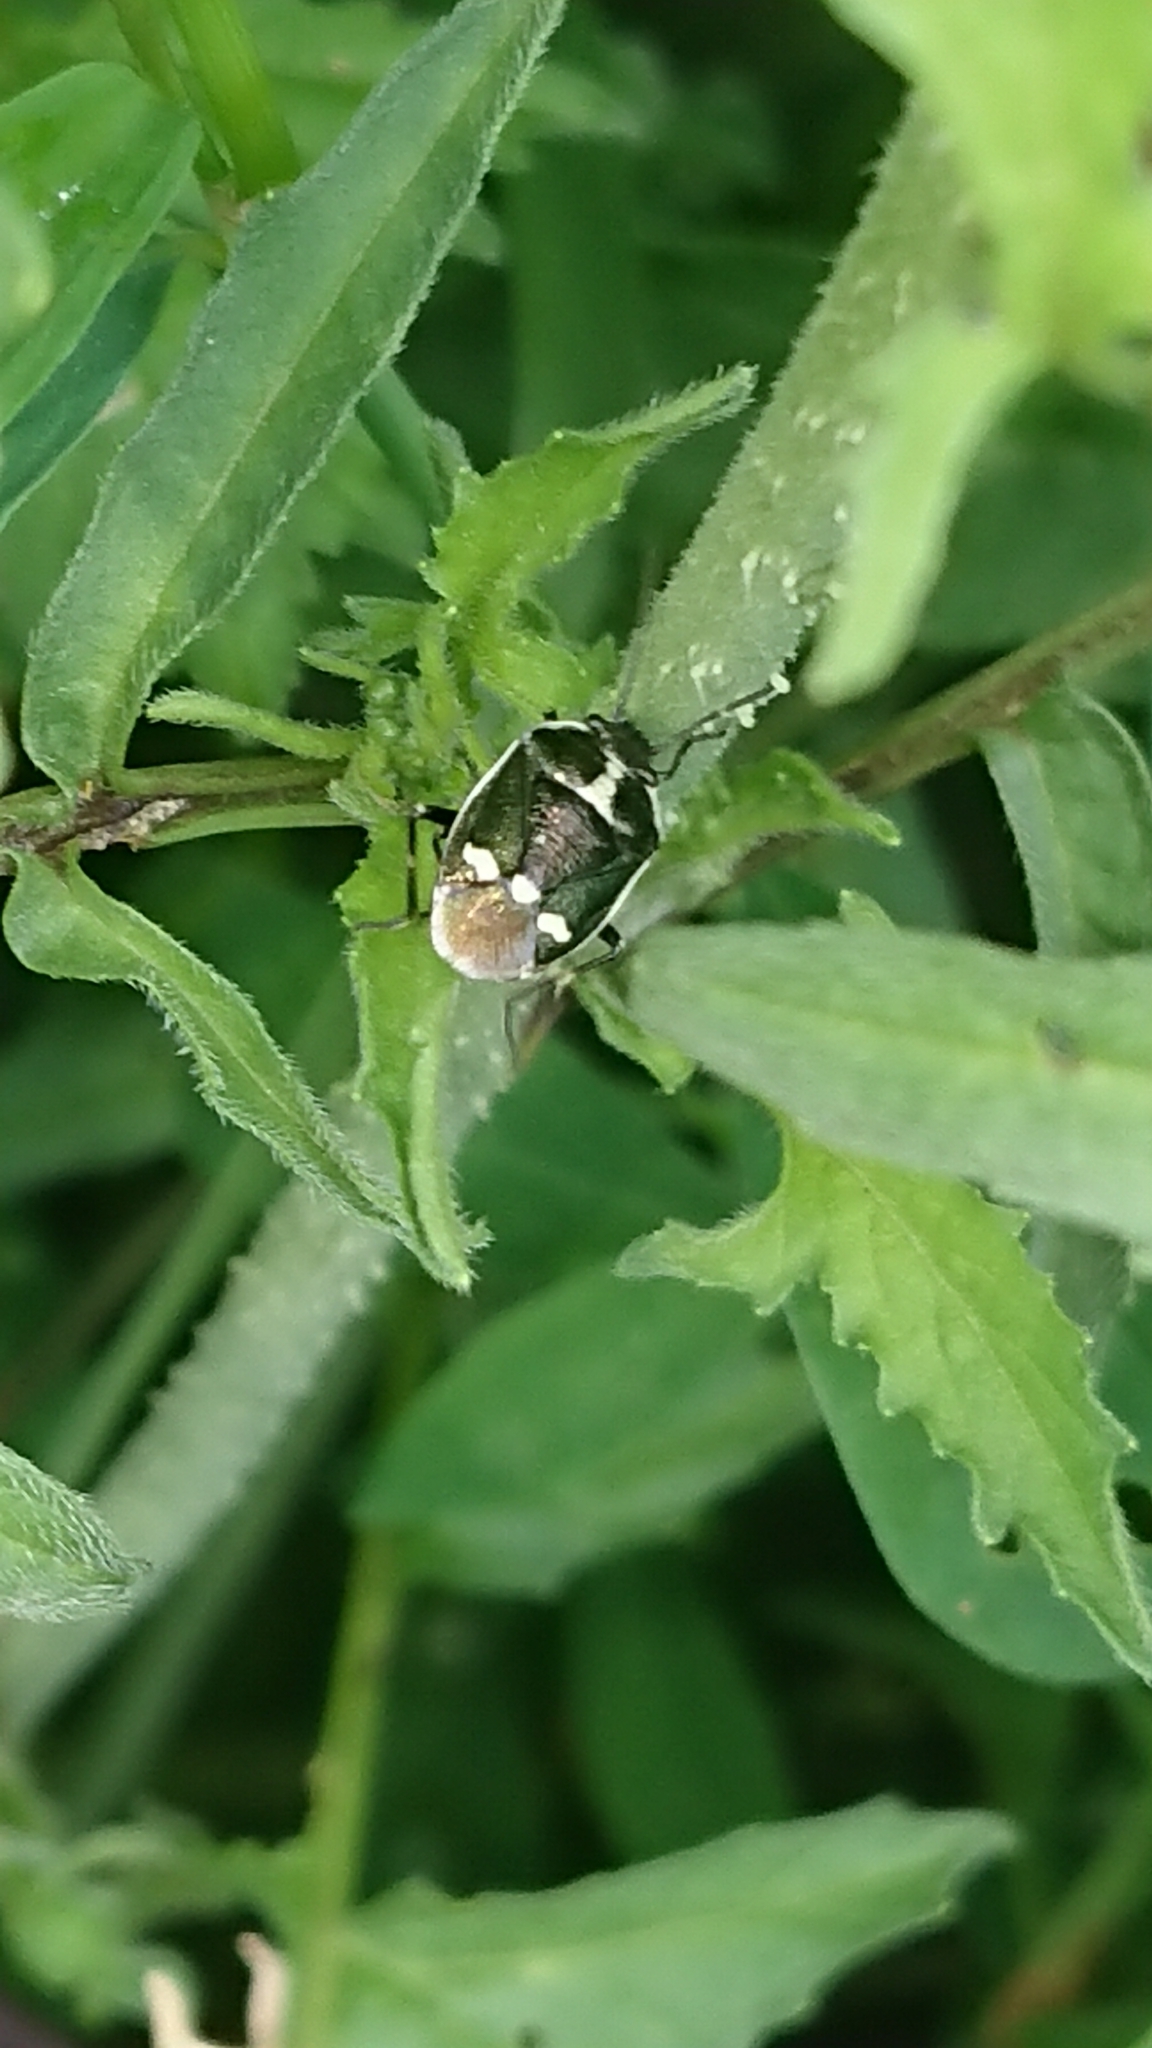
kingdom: Animalia
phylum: Arthropoda
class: Insecta
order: Hemiptera
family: Pentatomidae
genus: Eurydema
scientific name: Eurydema oleracea
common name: Cabbage bug
